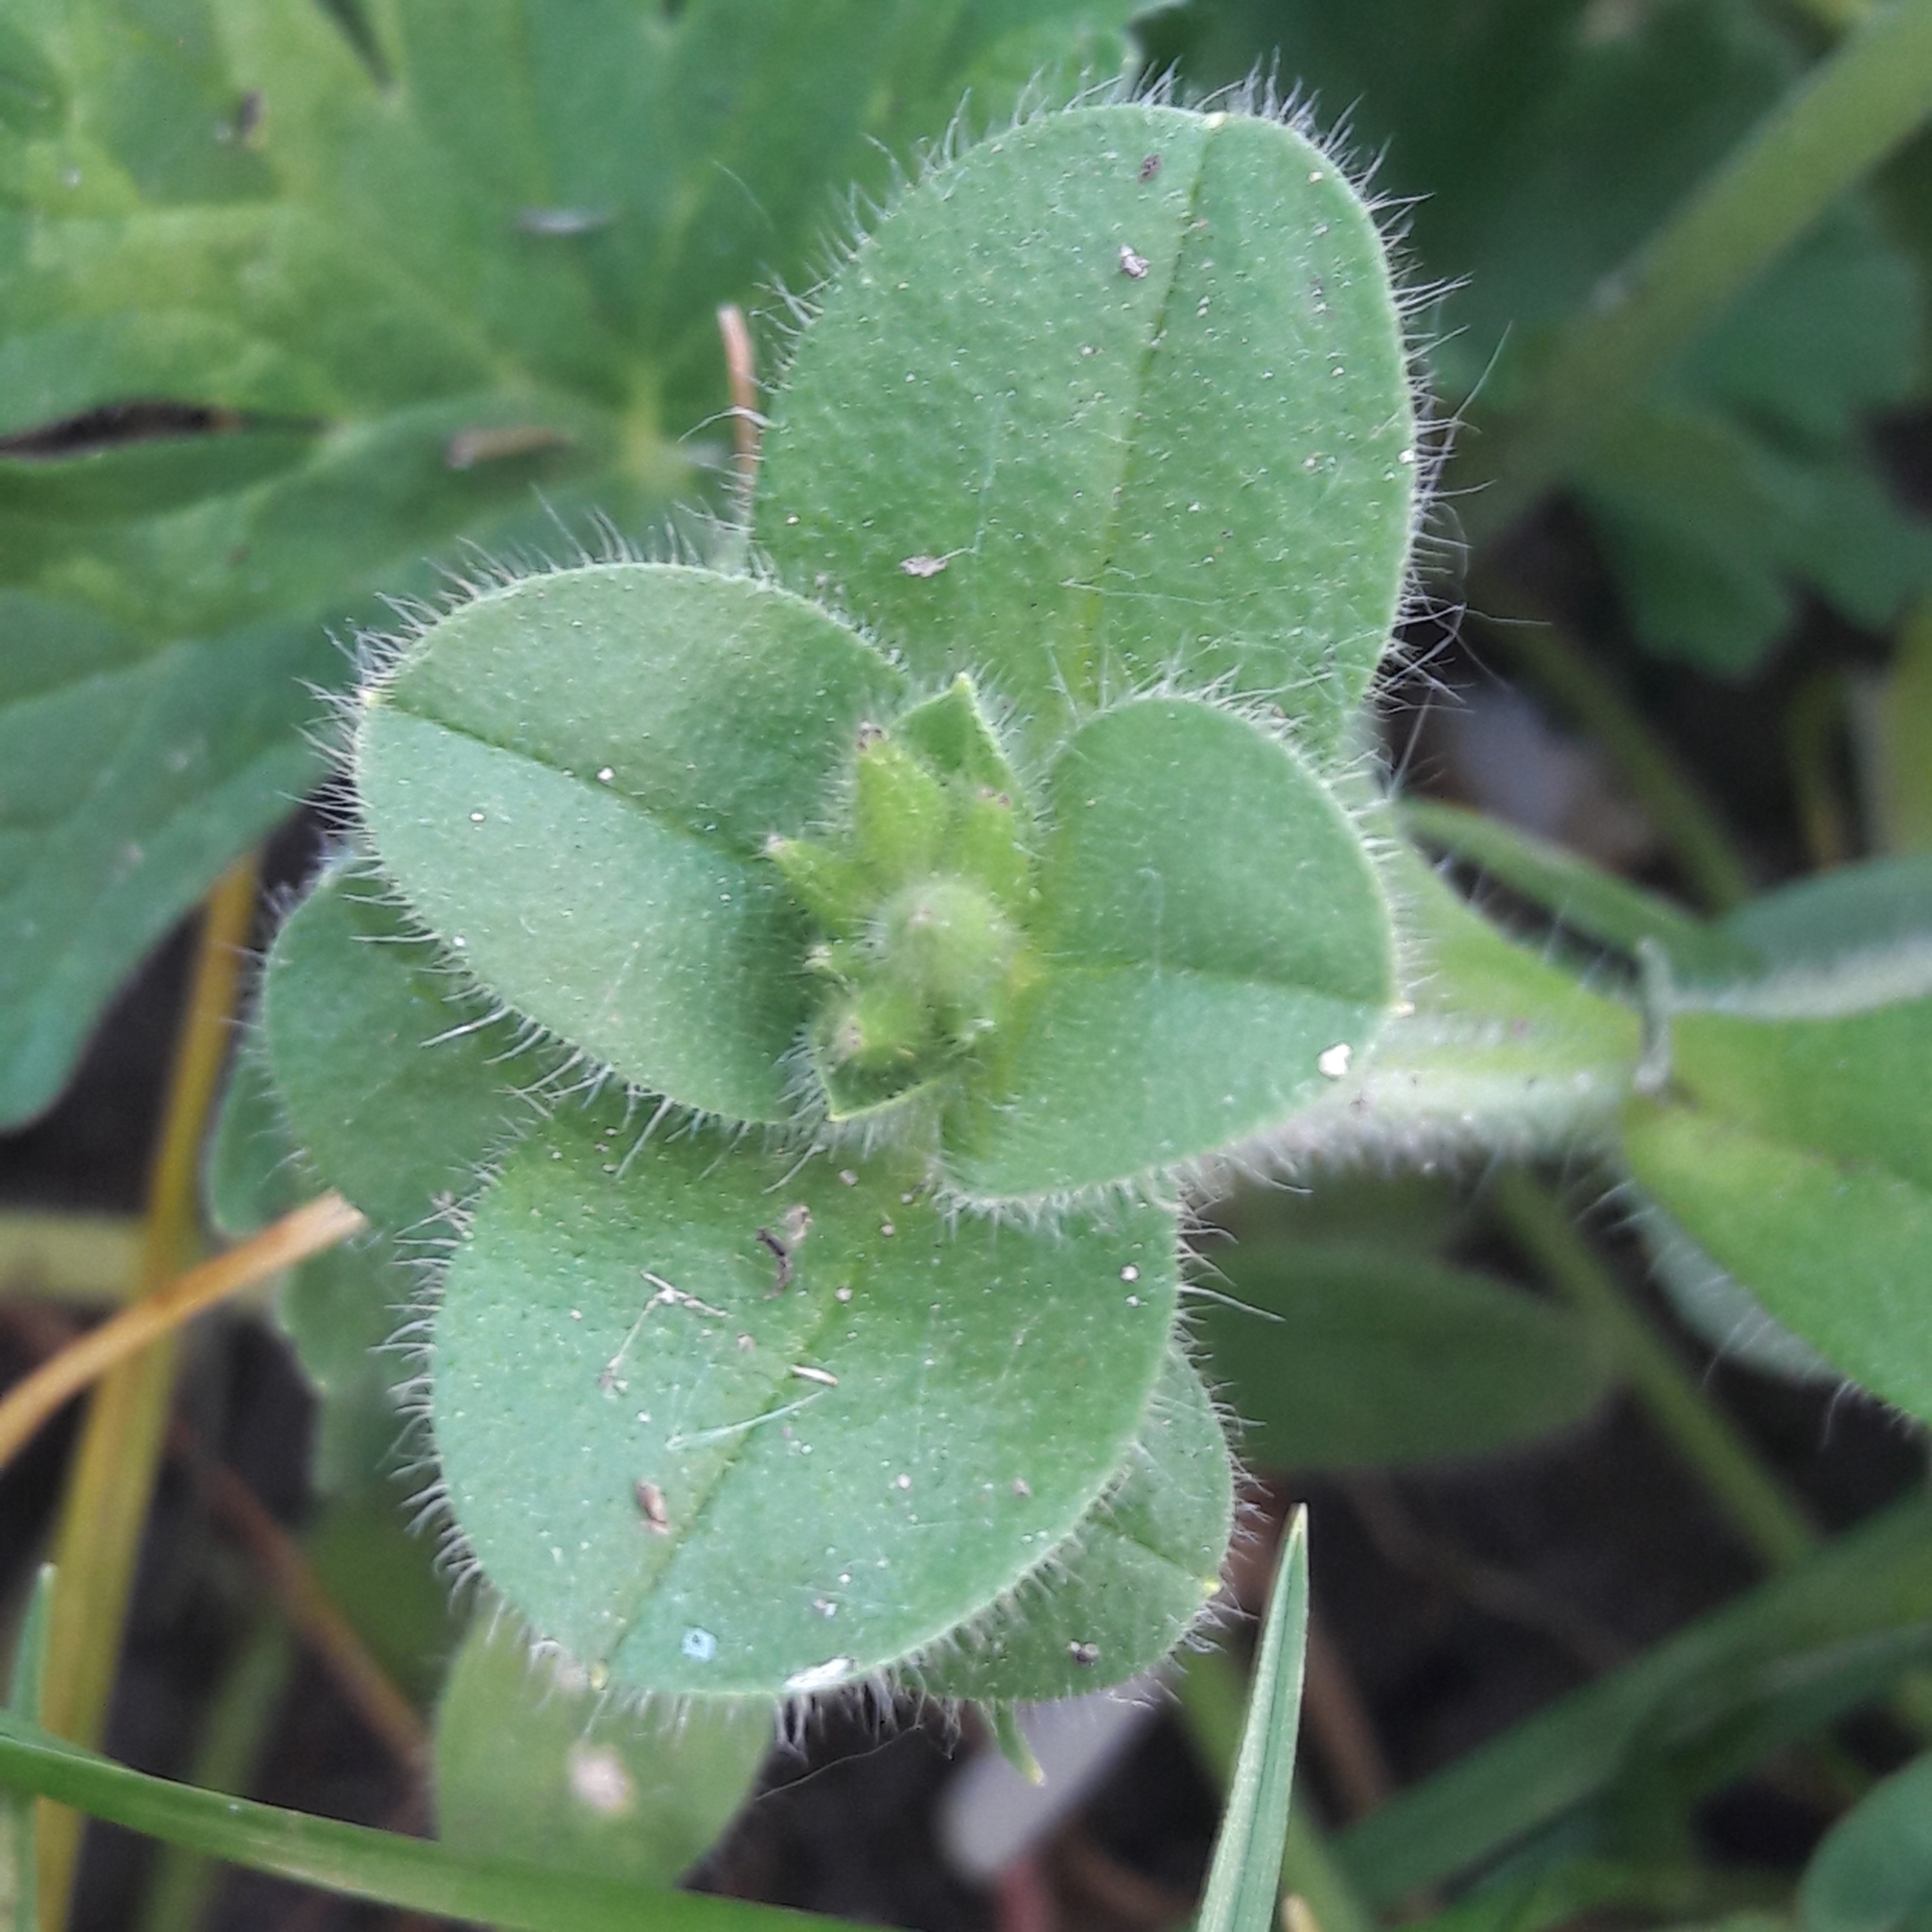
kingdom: Plantae
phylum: Tracheophyta
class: Magnoliopsida
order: Caryophyllales
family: Caryophyllaceae
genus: Cerastium
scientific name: Cerastium glomeratum
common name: Sticky chickweed
